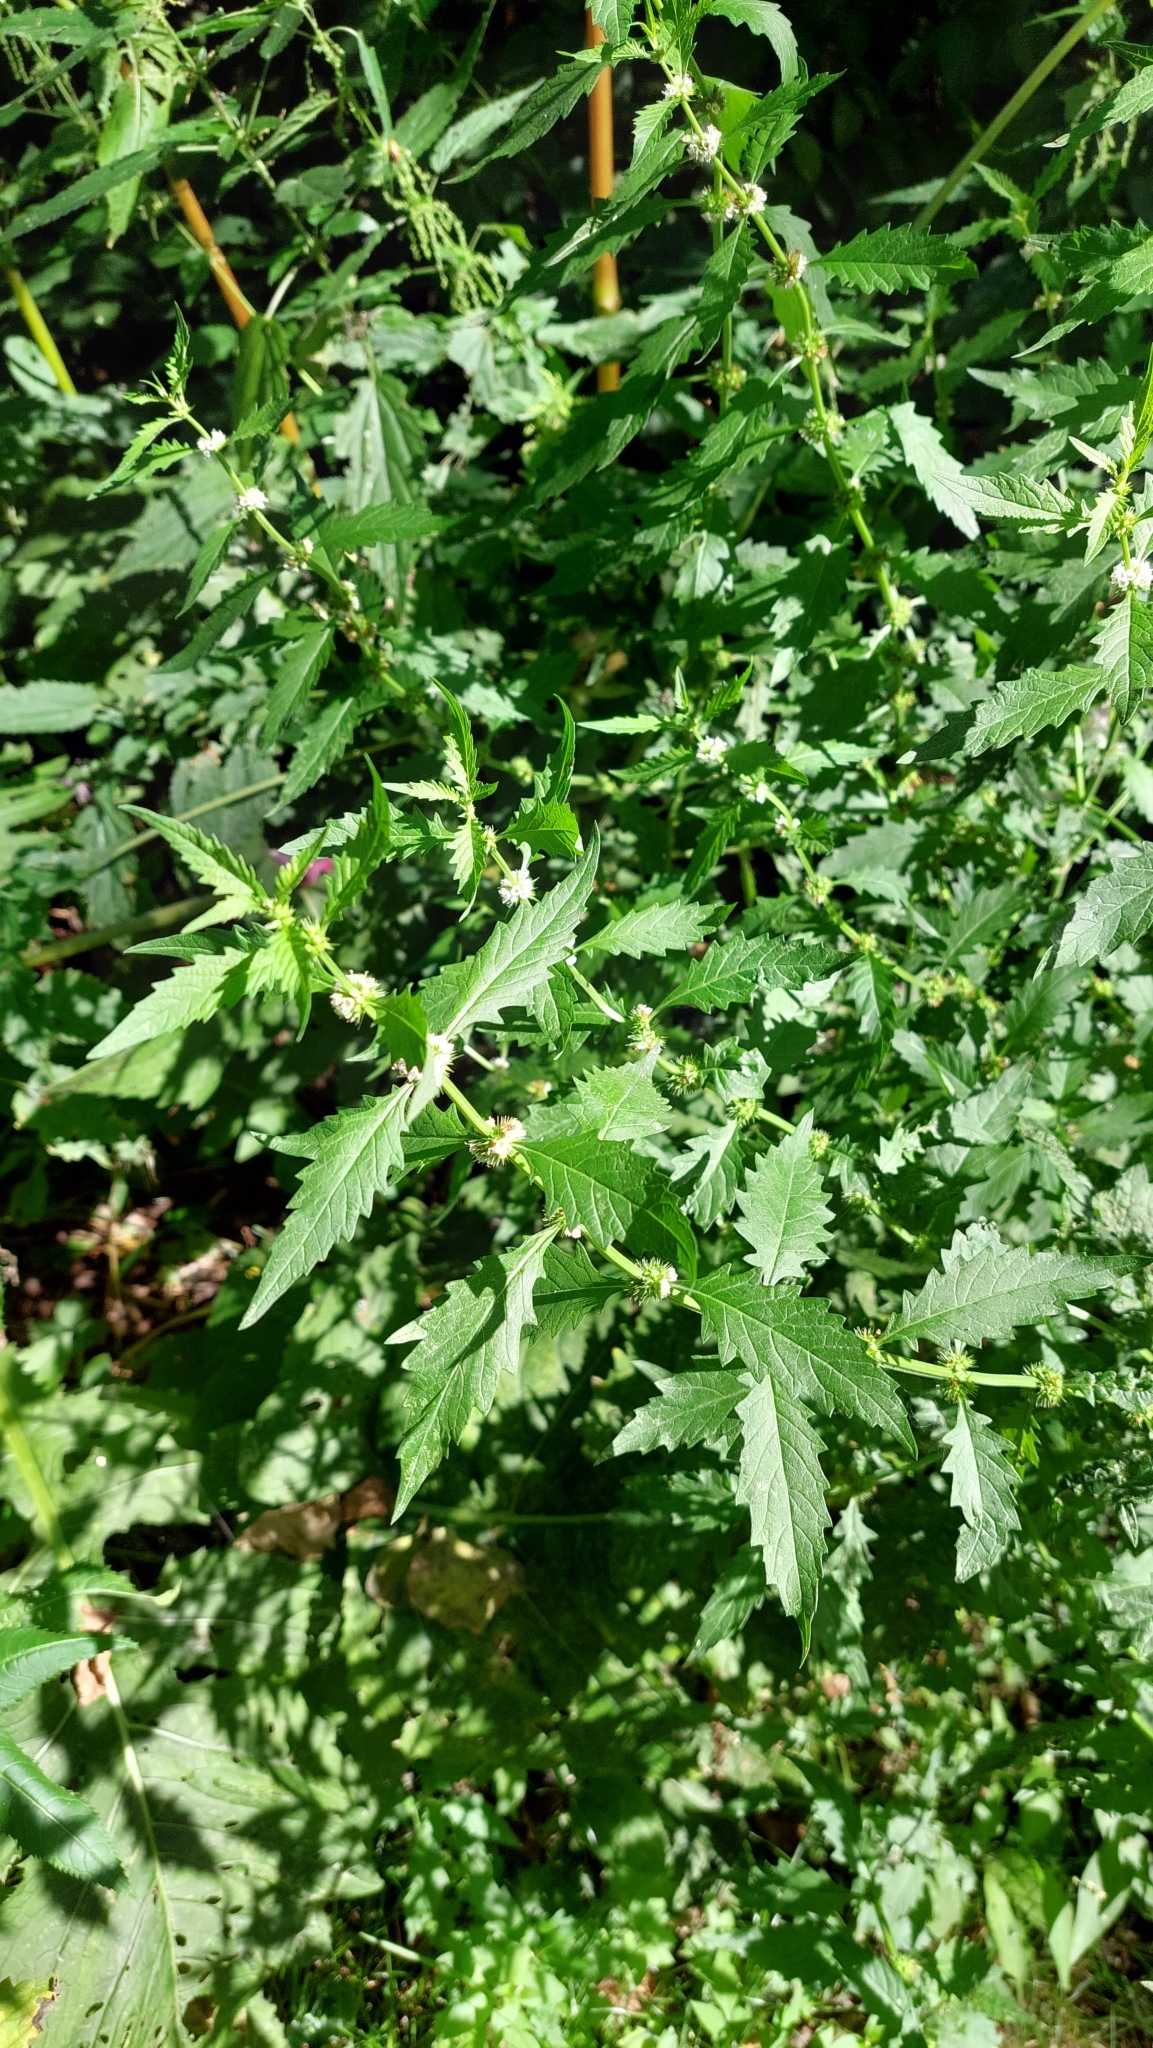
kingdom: Plantae
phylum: Tracheophyta
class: Magnoliopsida
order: Lamiales
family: Lamiaceae
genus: Lycopus
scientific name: Lycopus europaeus
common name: European bugleweed
